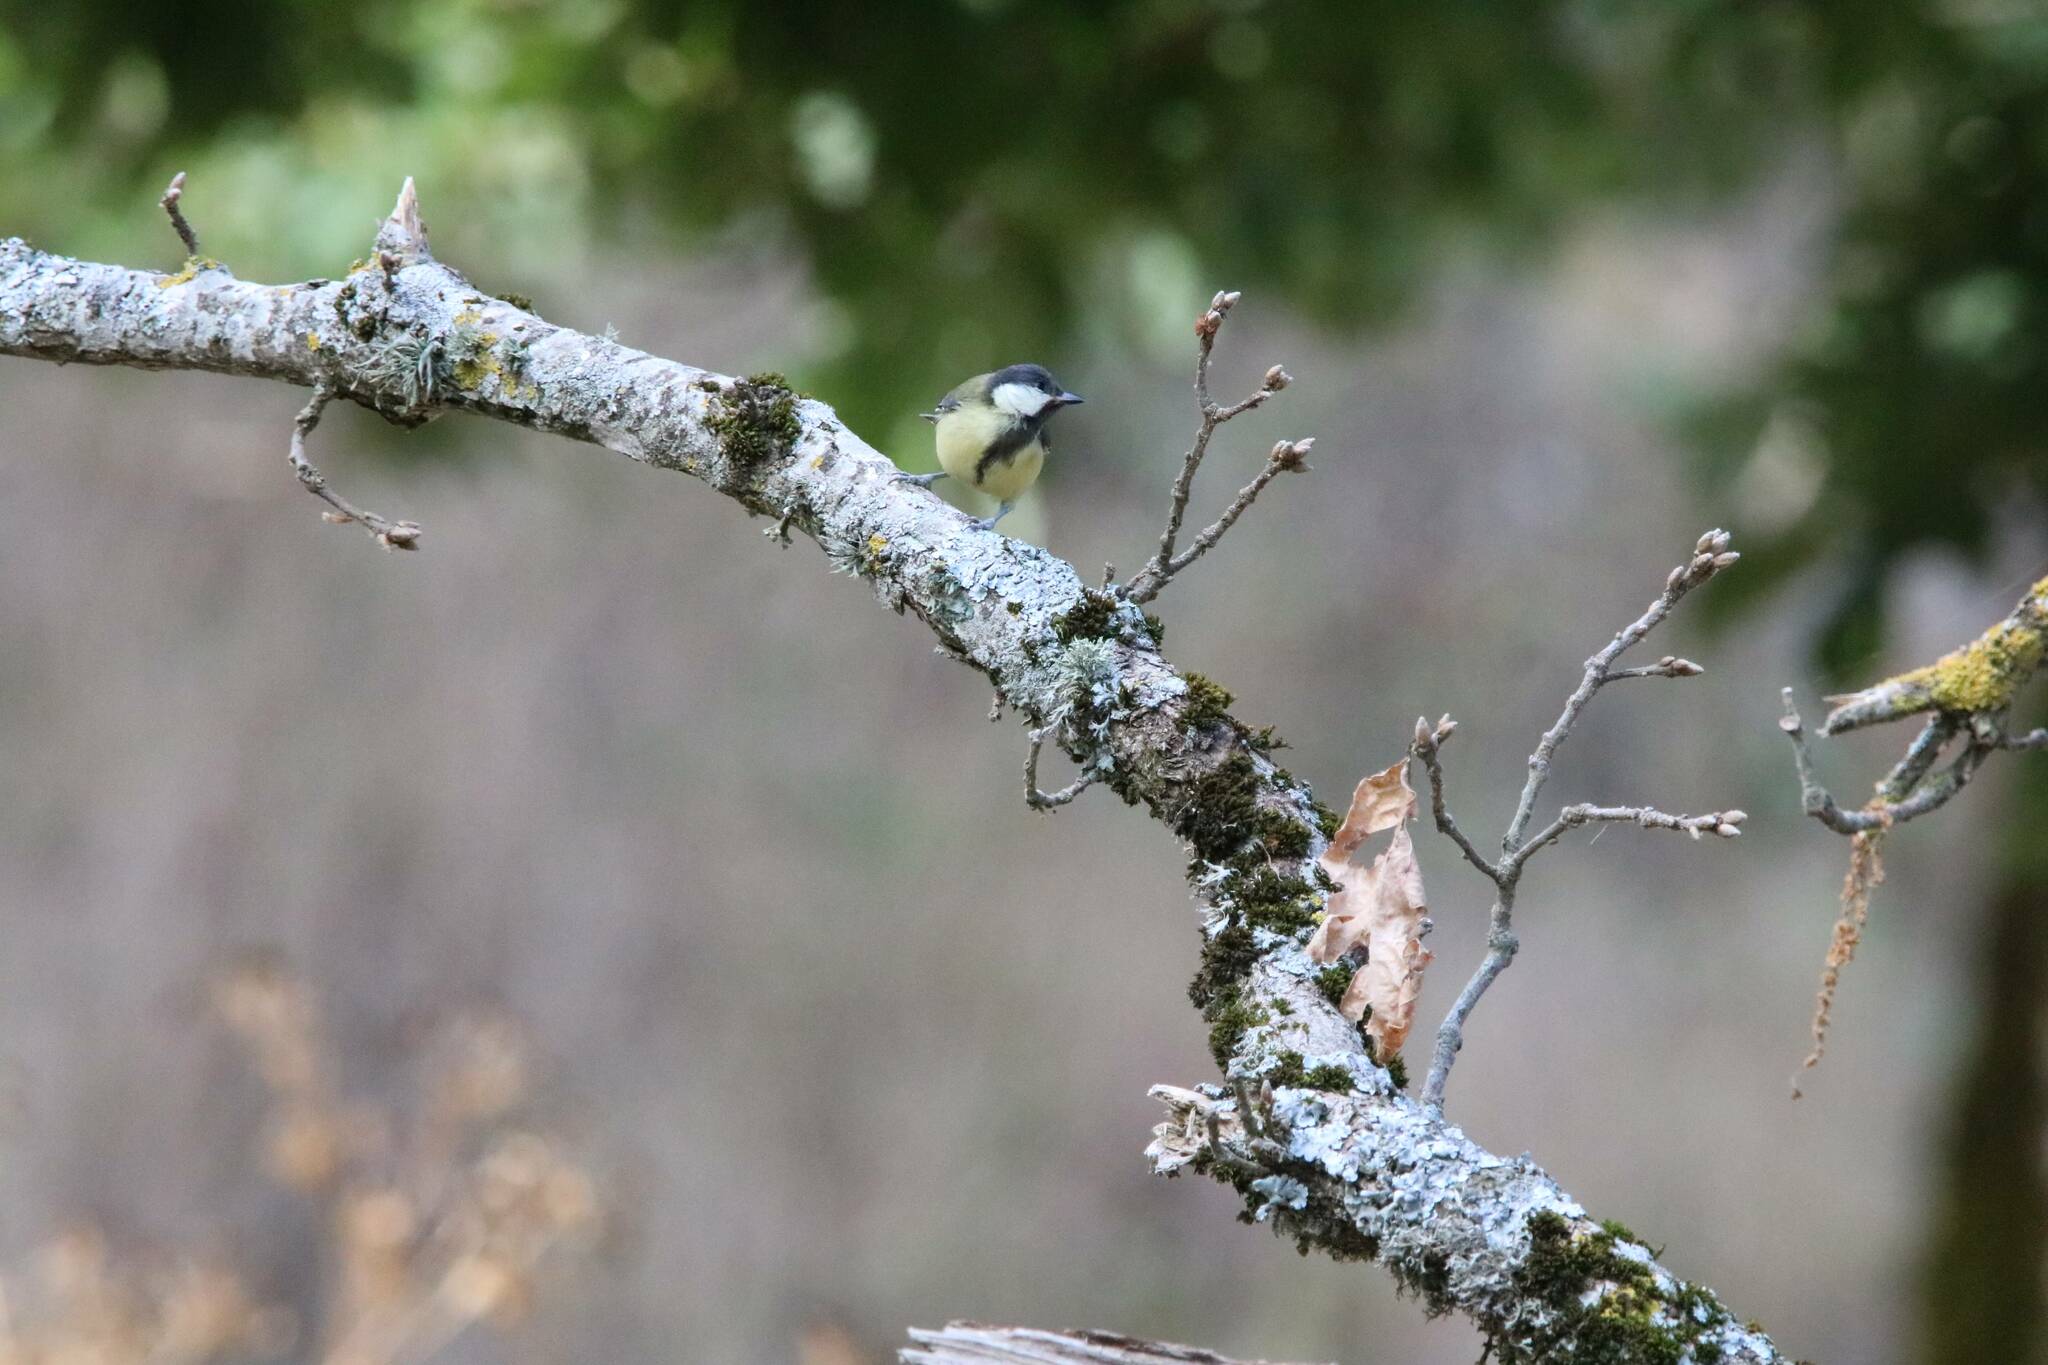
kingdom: Animalia
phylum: Chordata
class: Aves
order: Passeriformes
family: Paridae
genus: Parus
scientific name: Parus major
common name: Great tit
